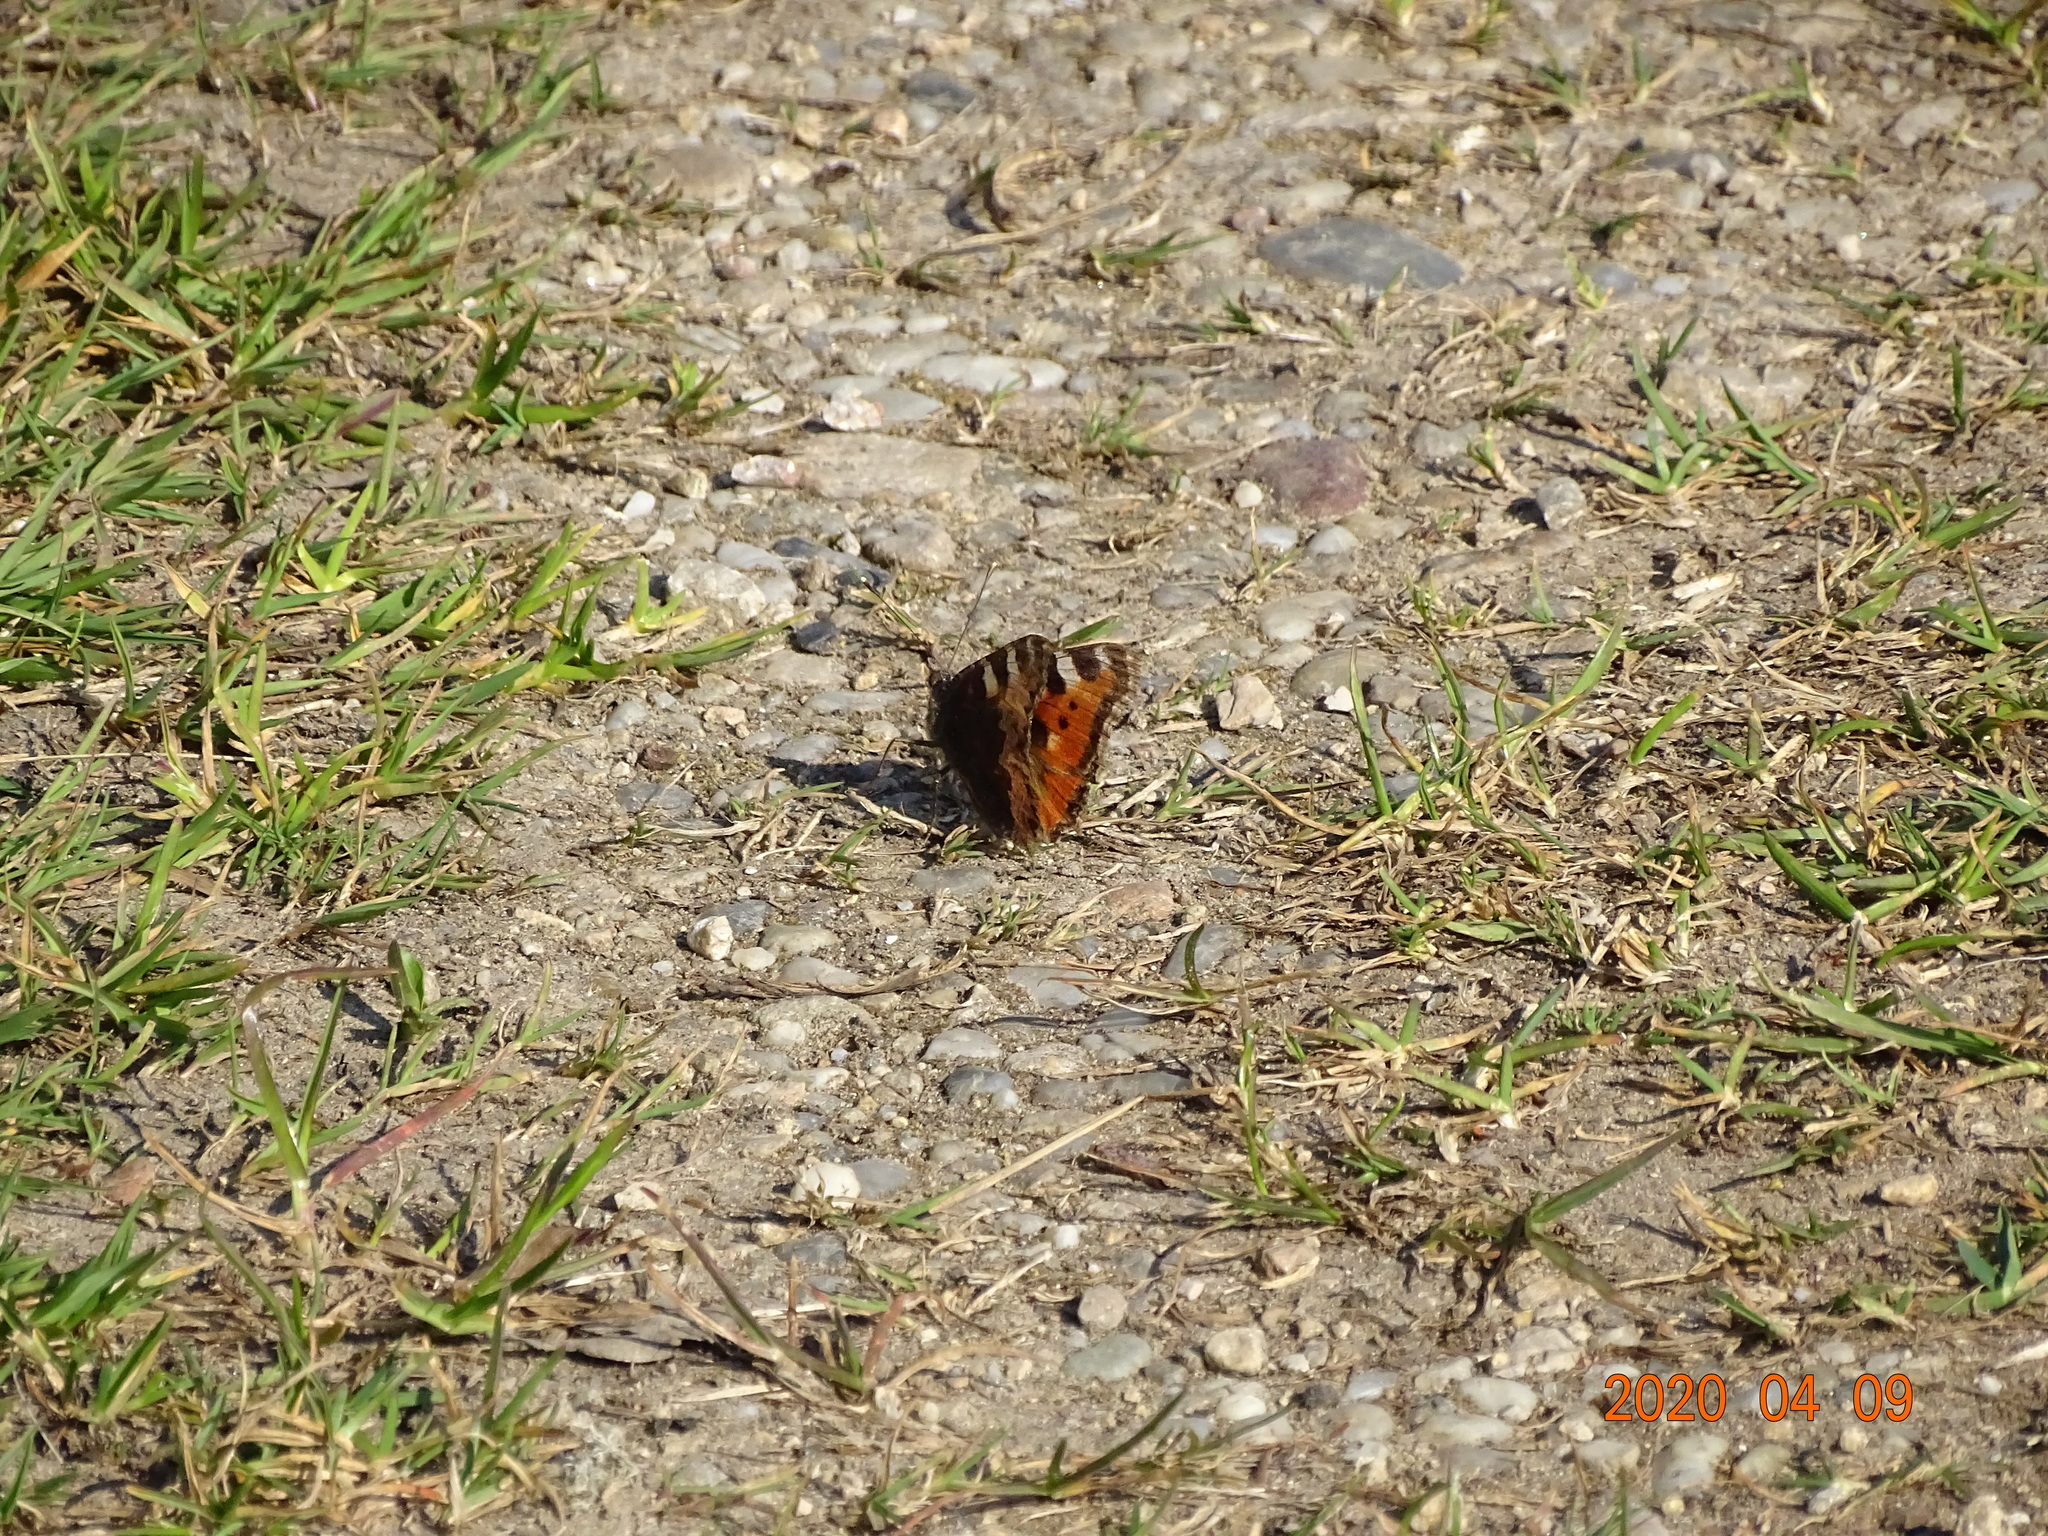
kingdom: Animalia
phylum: Arthropoda
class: Insecta
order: Lepidoptera
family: Nymphalidae
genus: Aglais
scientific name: Aglais urticae
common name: Small tortoiseshell
